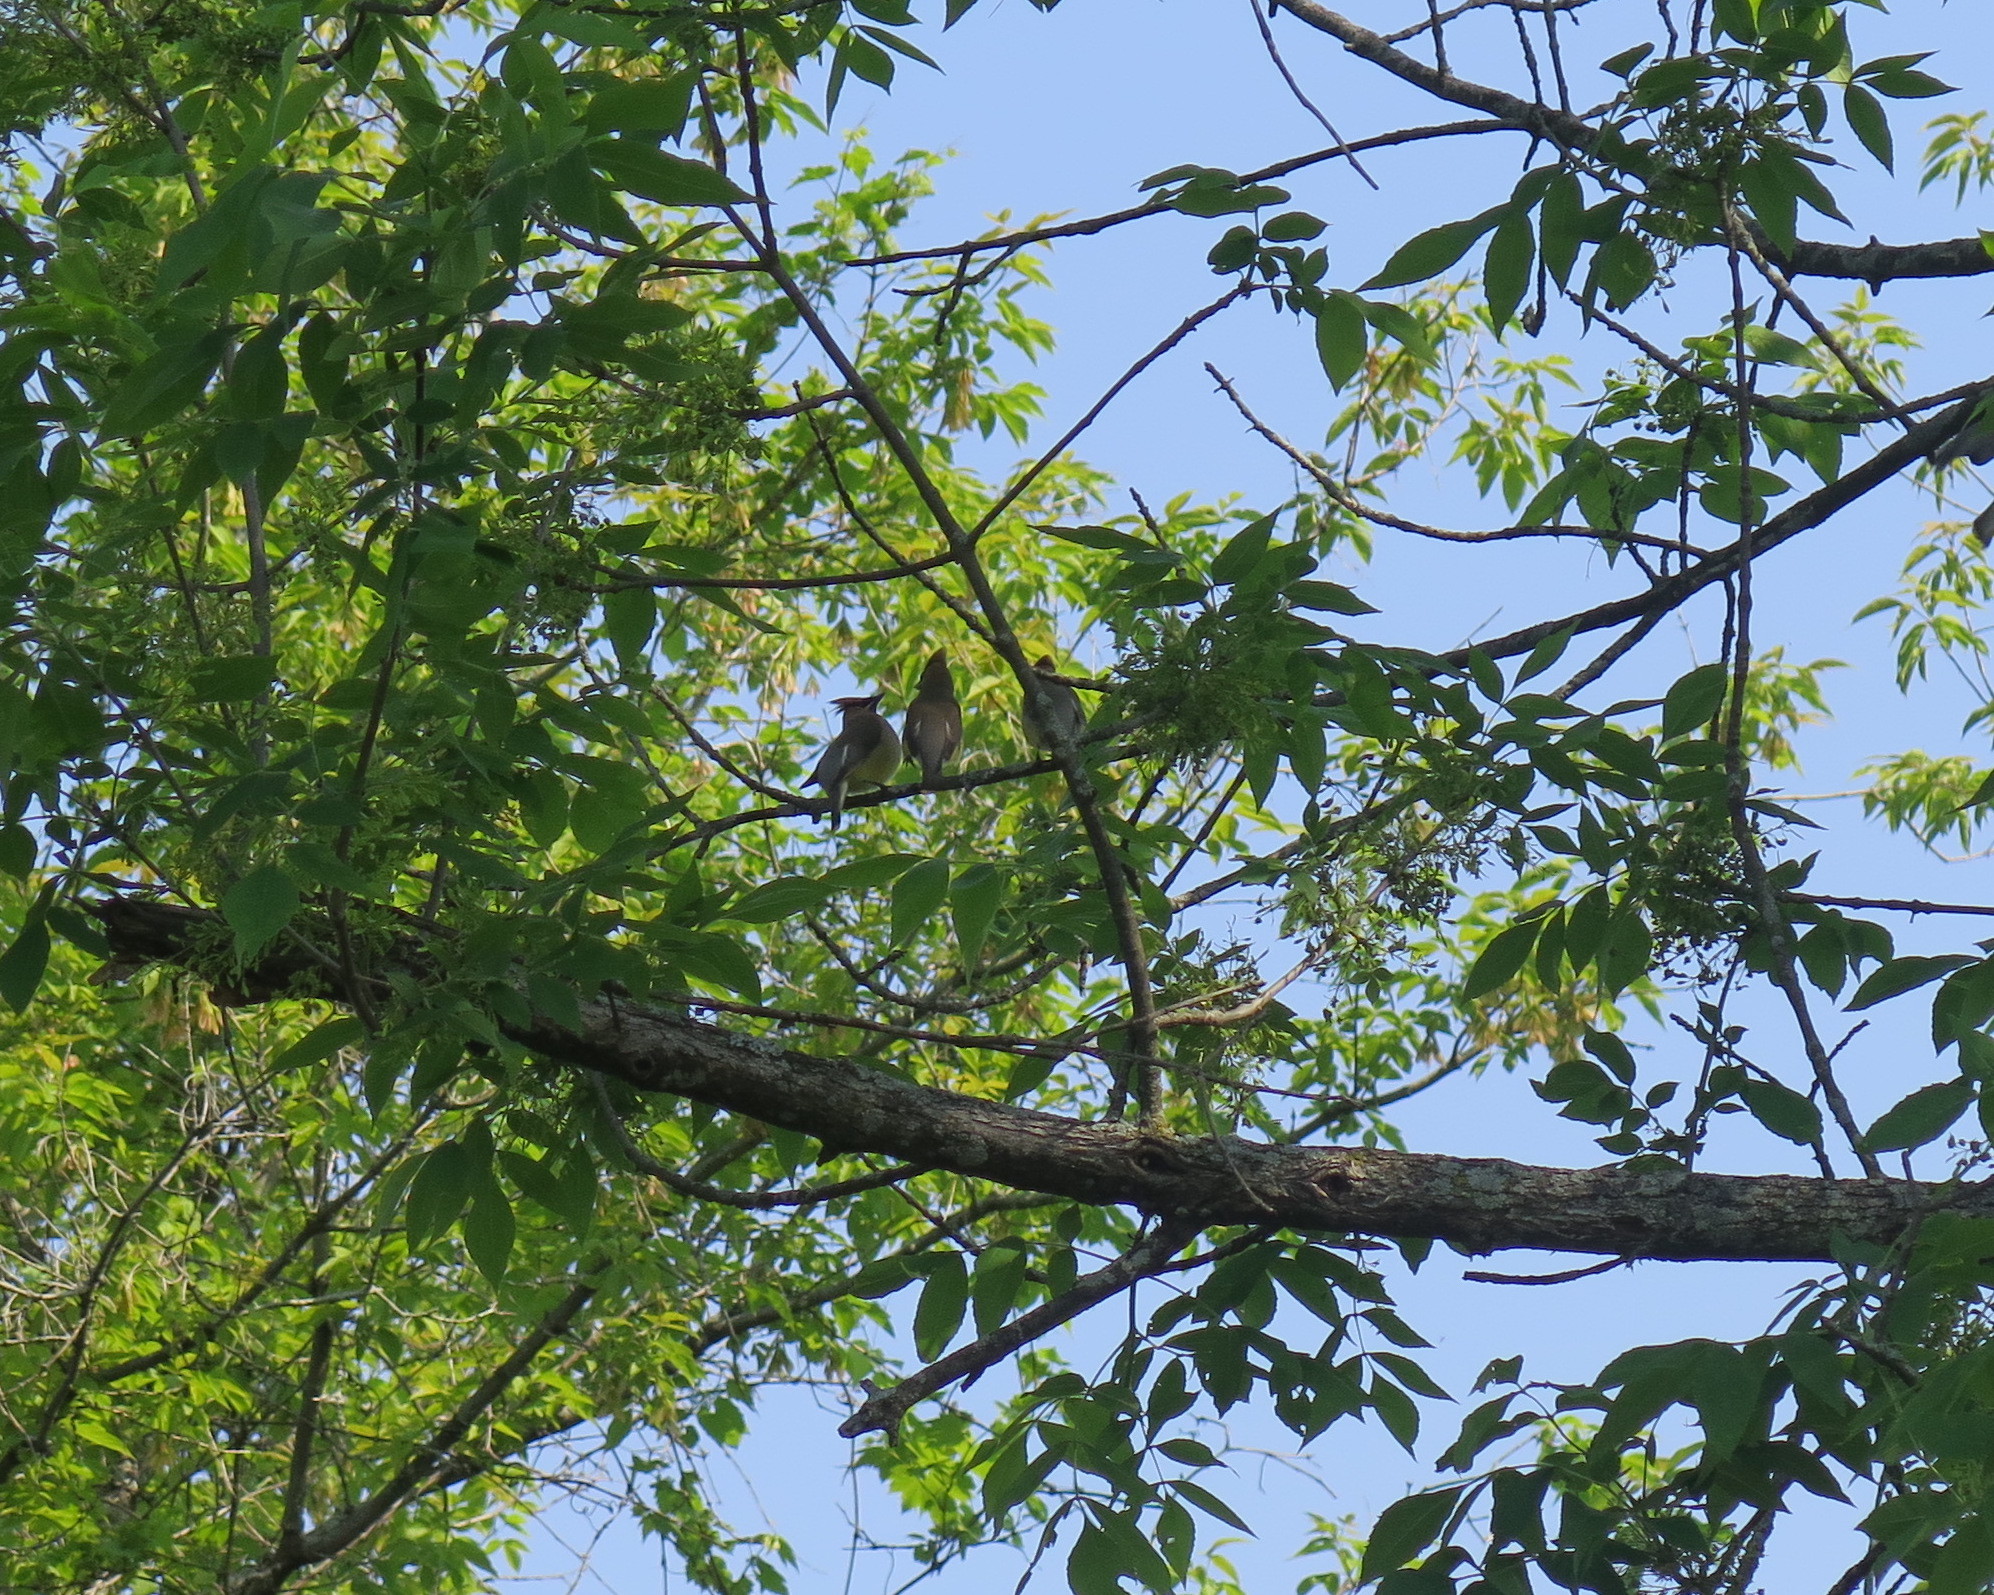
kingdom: Animalia
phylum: Chordata
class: Aves
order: Passeriformes
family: Bombycillidae
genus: Bombycilla
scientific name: Bombycilla cedrorum
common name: Cedar waxwing
